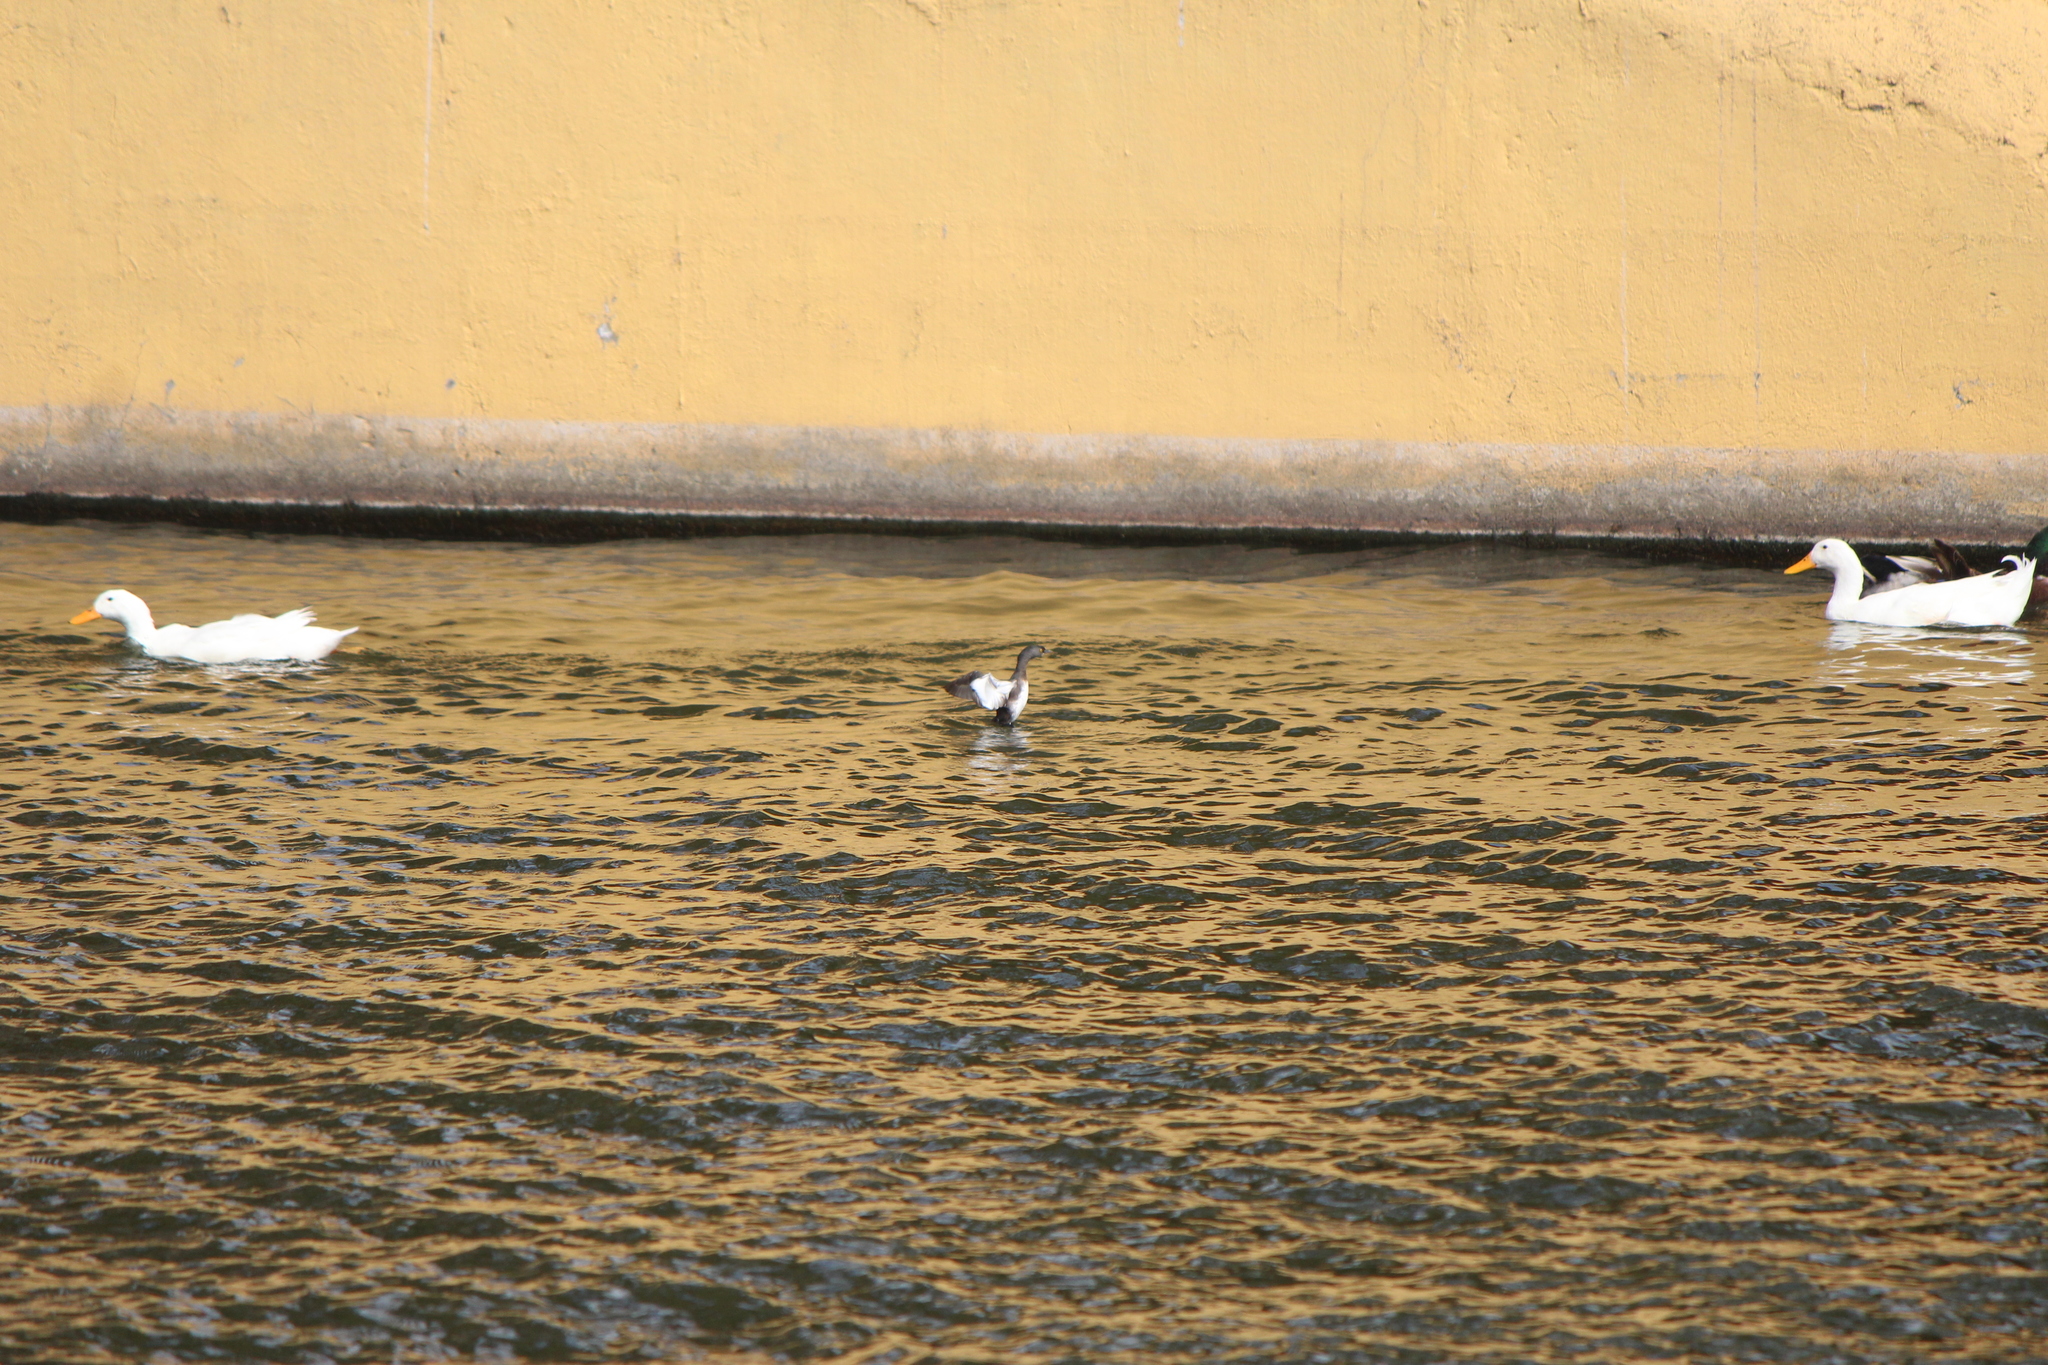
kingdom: Animalia
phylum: Chordata
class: Aves
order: Podicipediformes
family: Podicipedidae
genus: Tachybaptus
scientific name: Tachybaptus dominicus
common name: Least grebe
